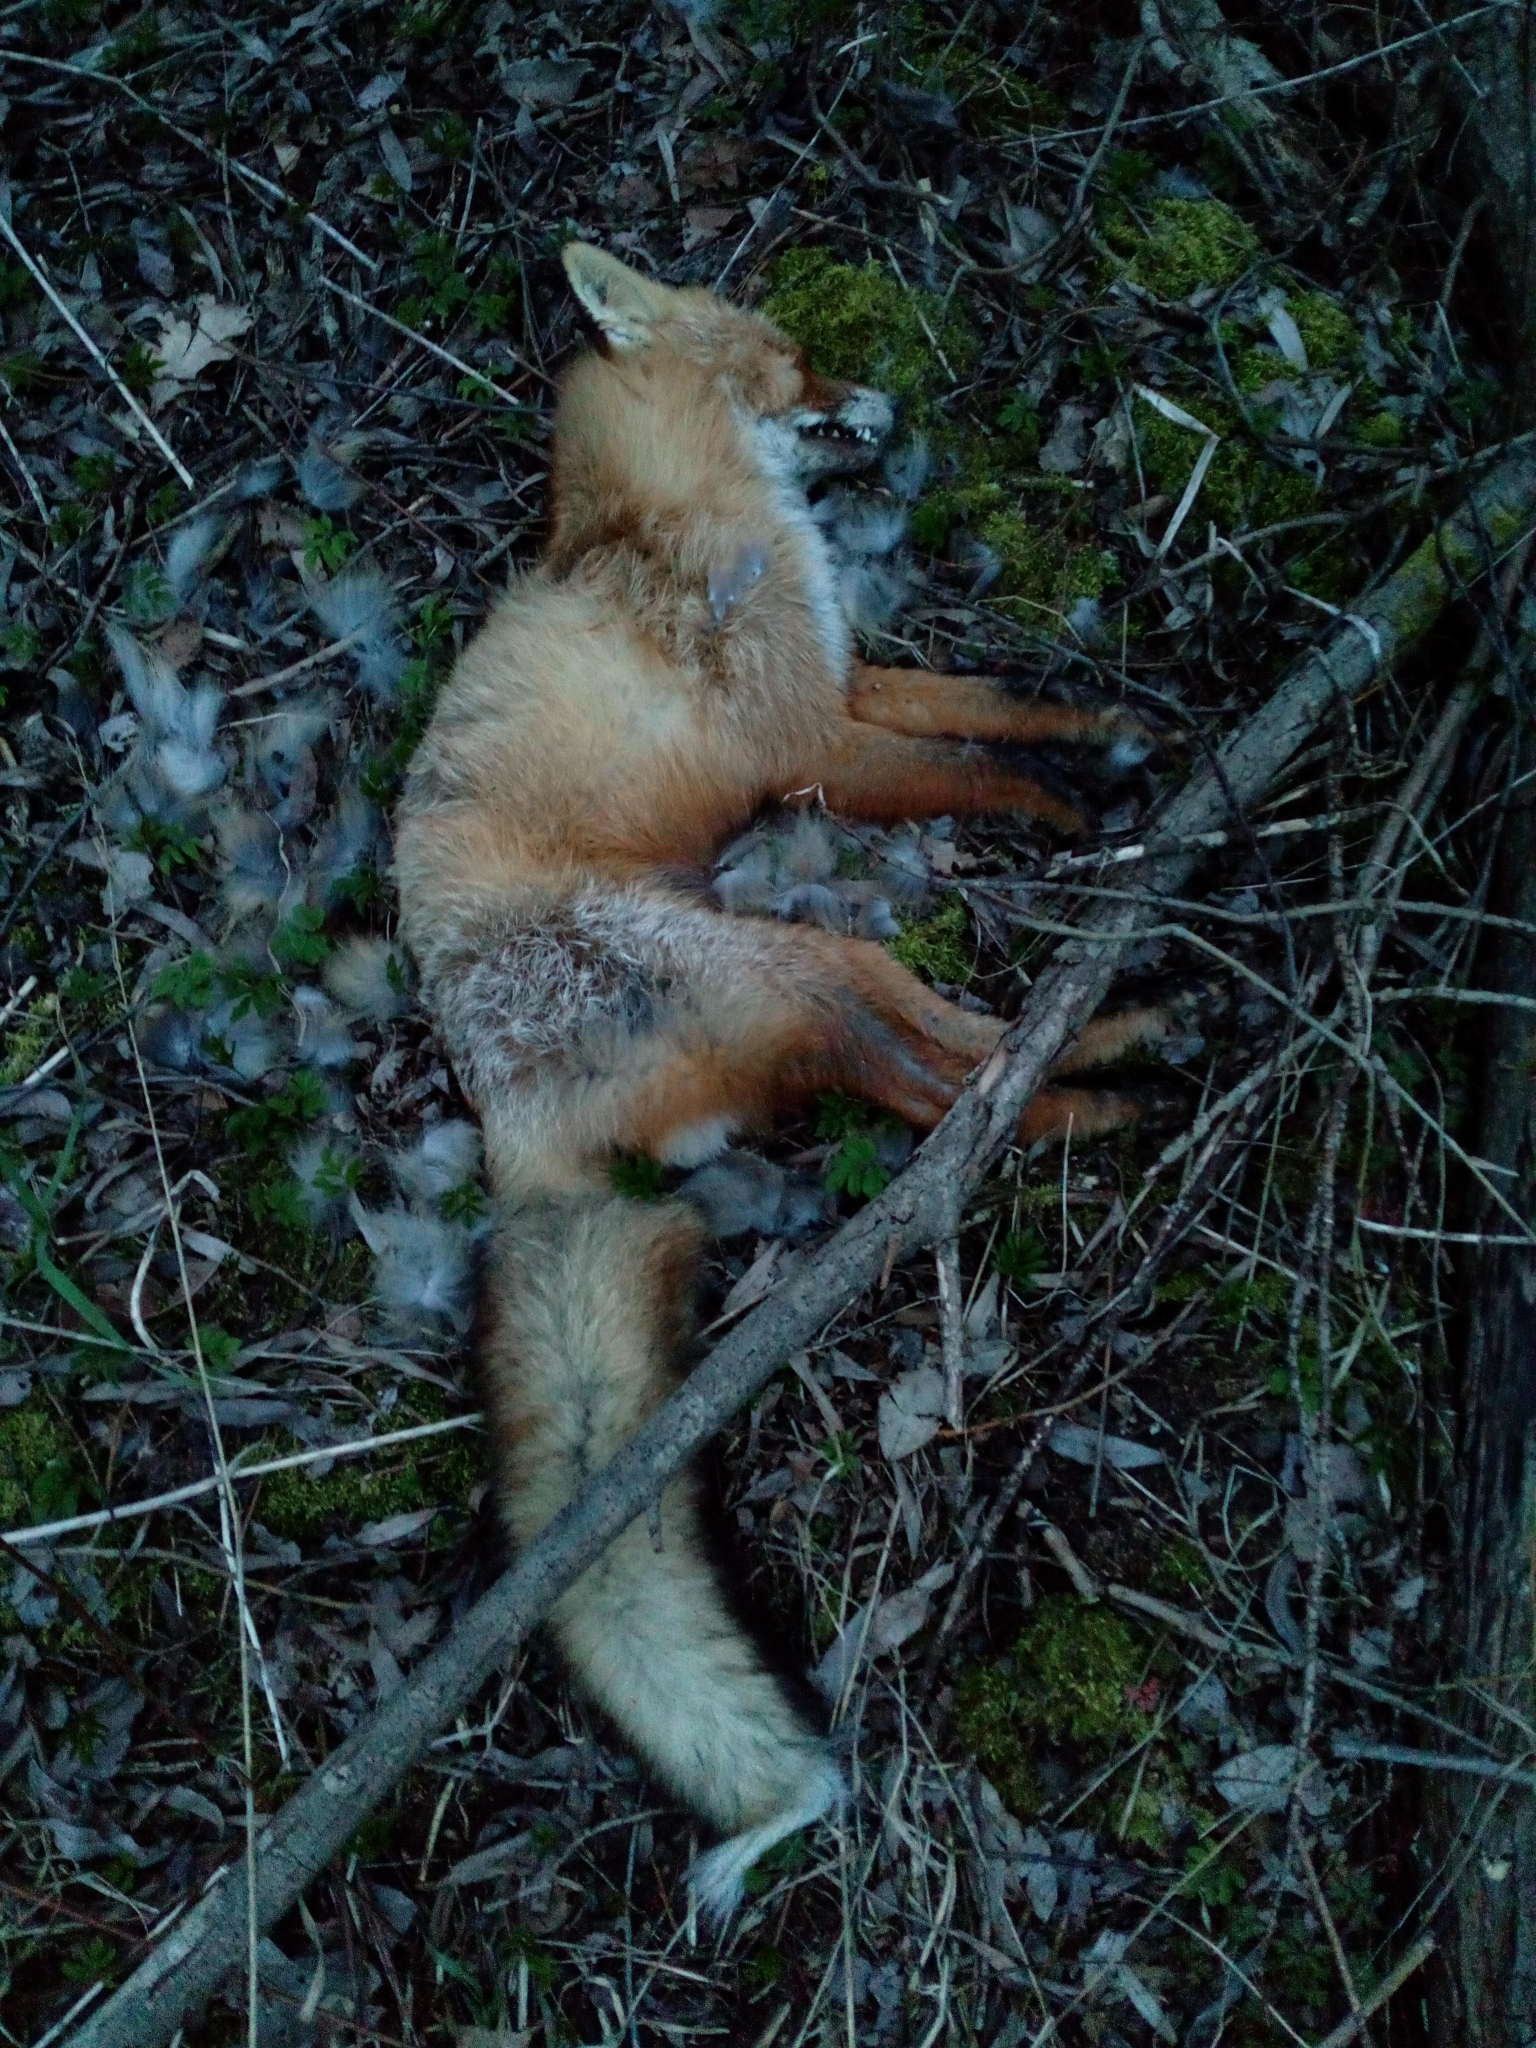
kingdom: Animalia
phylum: Chordata
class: Mammalia
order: Carnivora
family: Canidae
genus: Vulpes
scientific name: Vulpes vulpes
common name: Red fox
